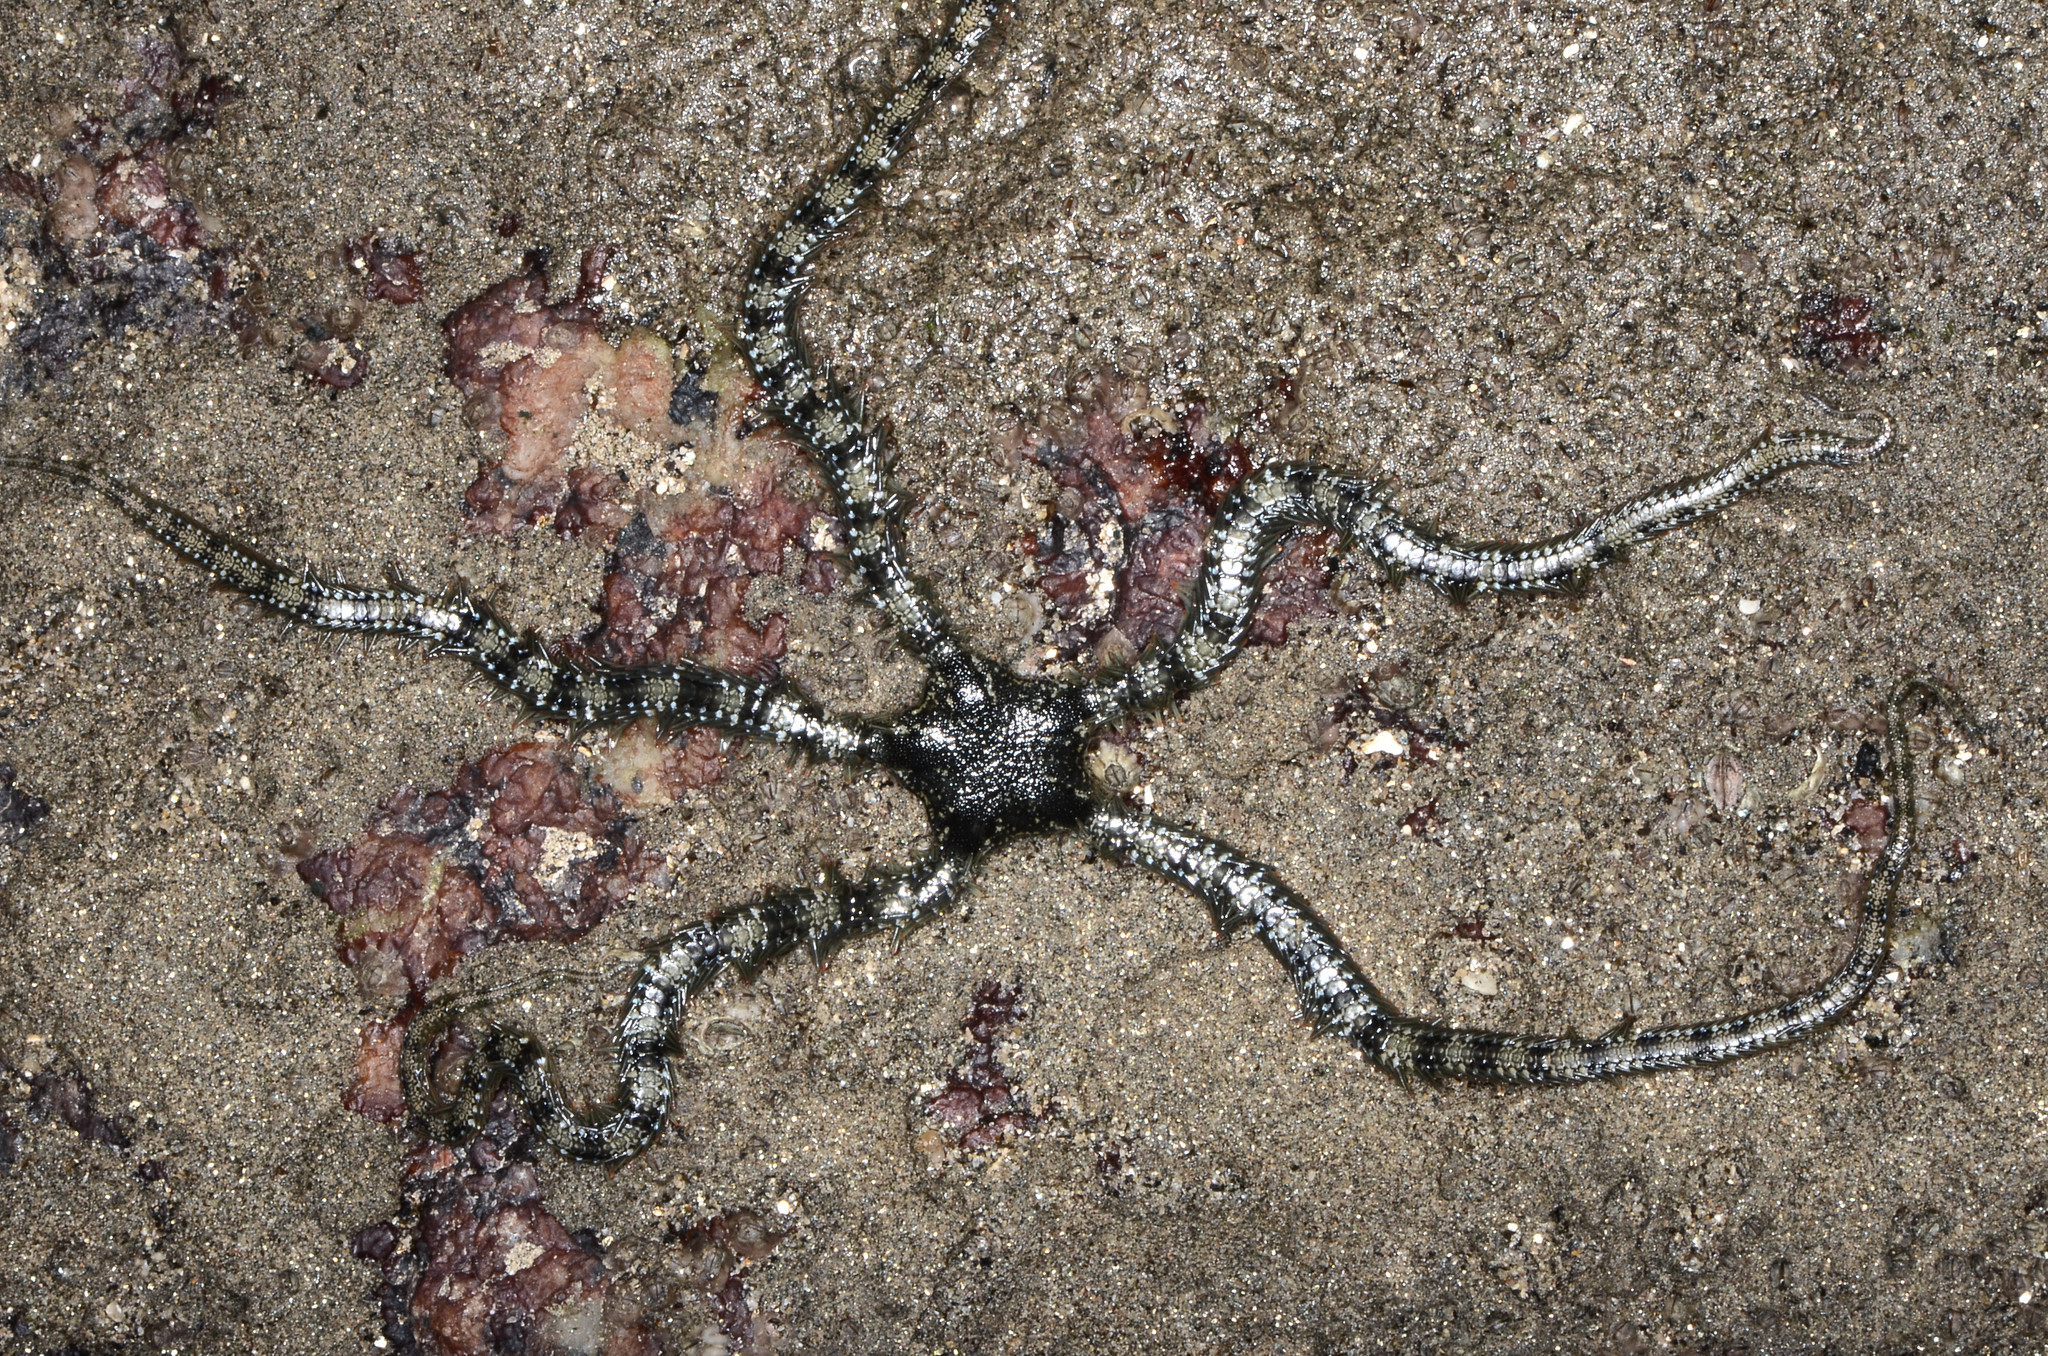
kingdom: Animalia
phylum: Echinodermata
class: Ophiuroidea
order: Ophiacanthida
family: Ophiocomidae
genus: Ophiocomella
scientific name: Ophiocomella alexandri
